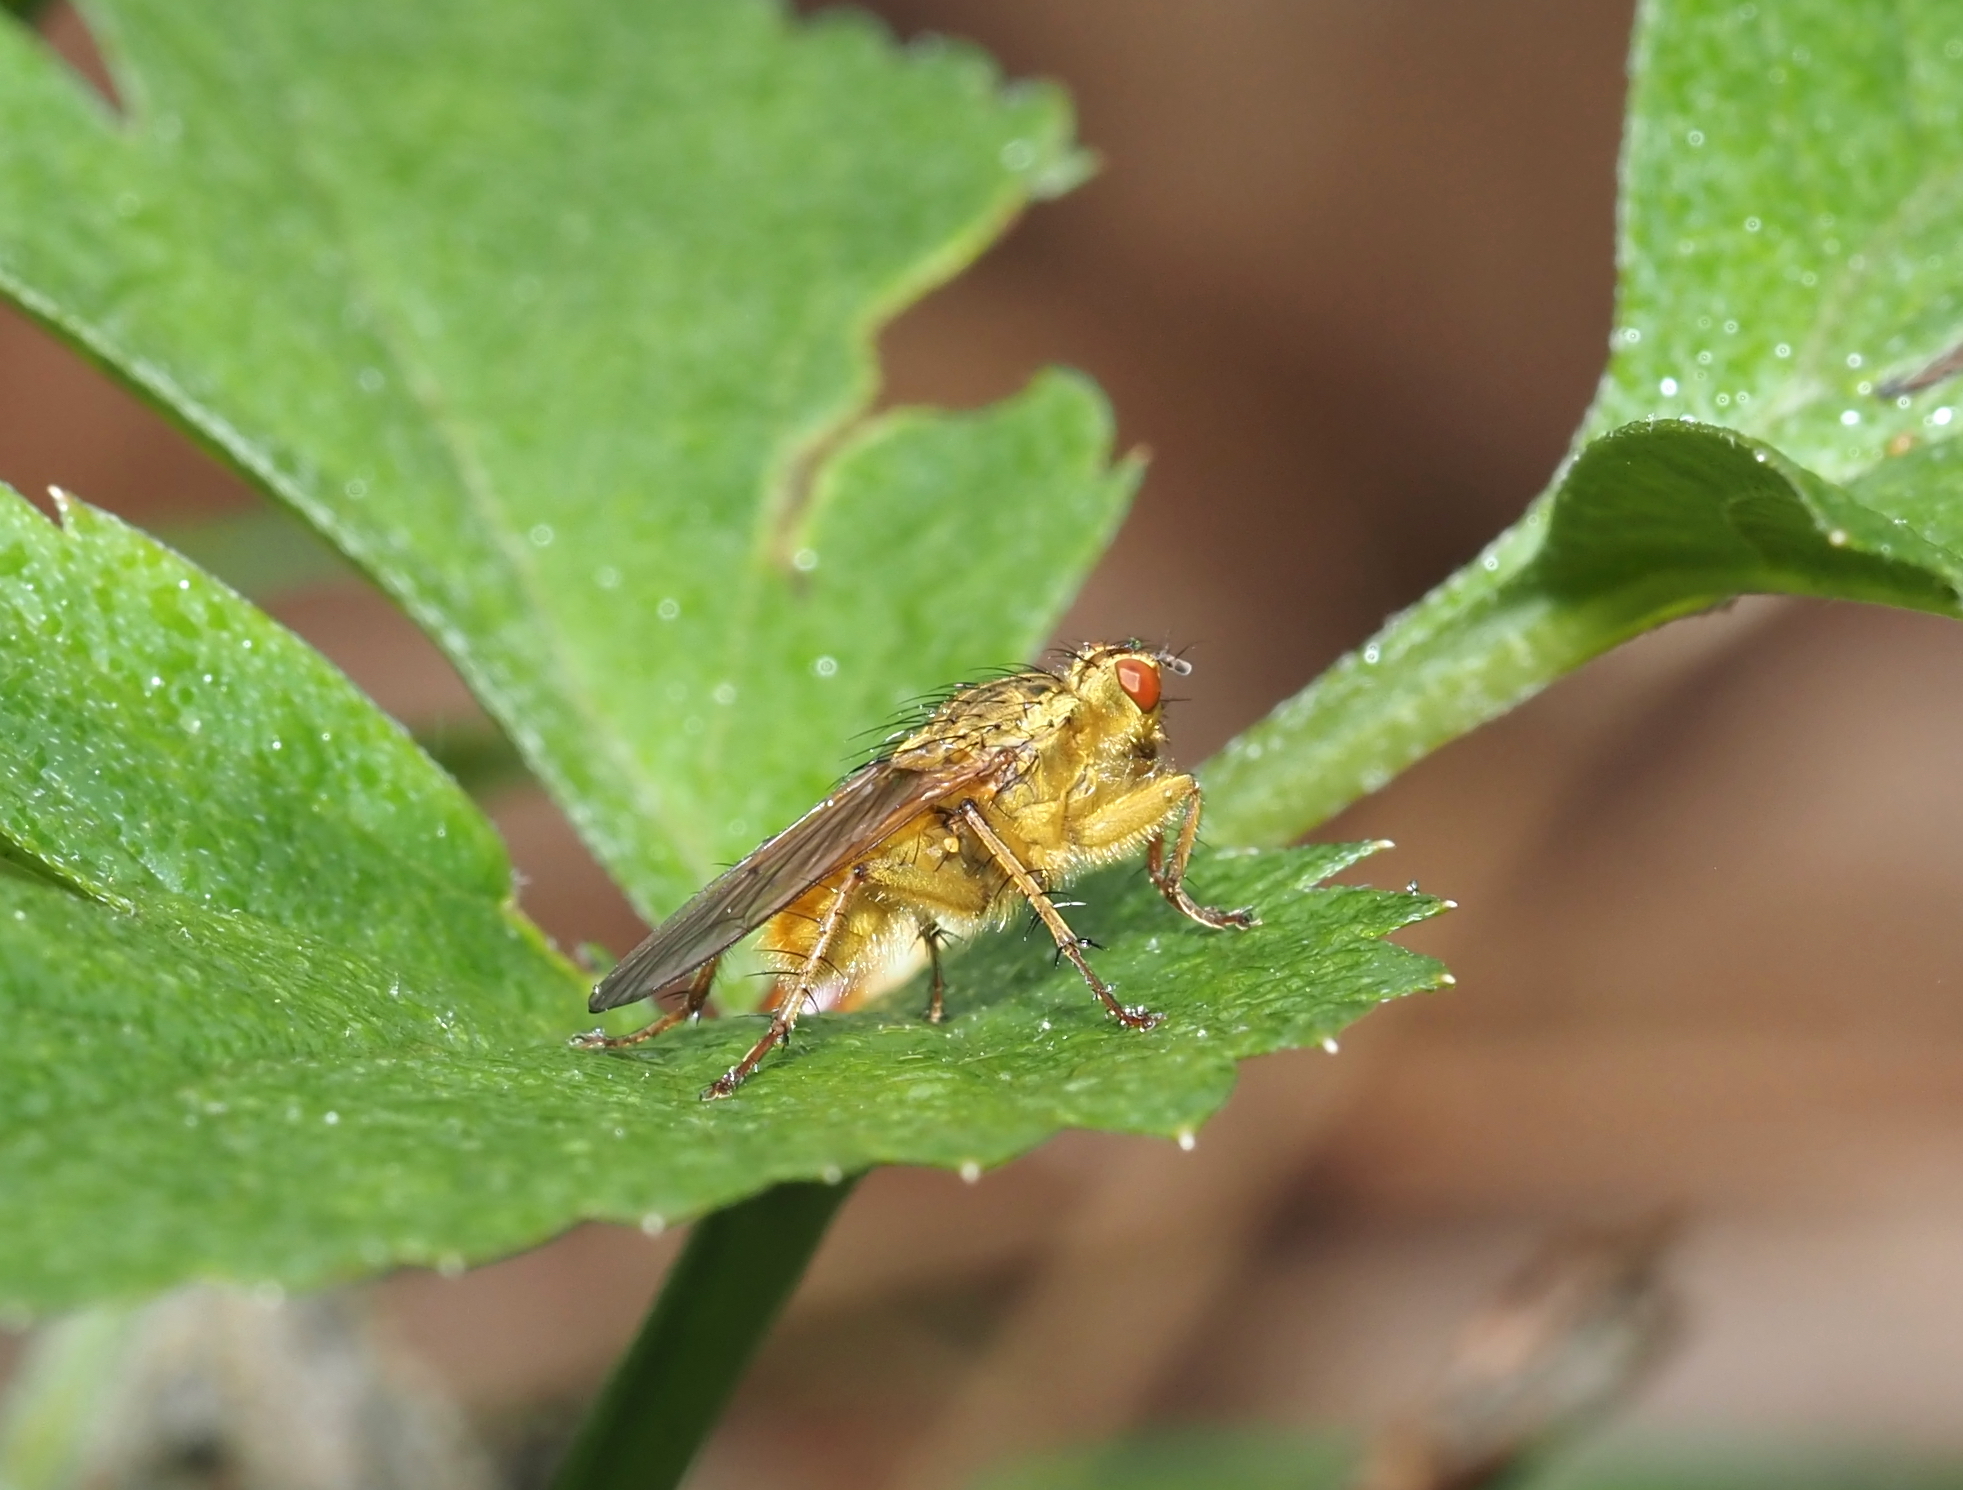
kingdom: Animalia
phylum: Arthropoda
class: Insecta
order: Diptera
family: Scathophagidae
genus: Scathophaga
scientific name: Scathophaga stercoraria
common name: Yellow dung fly
